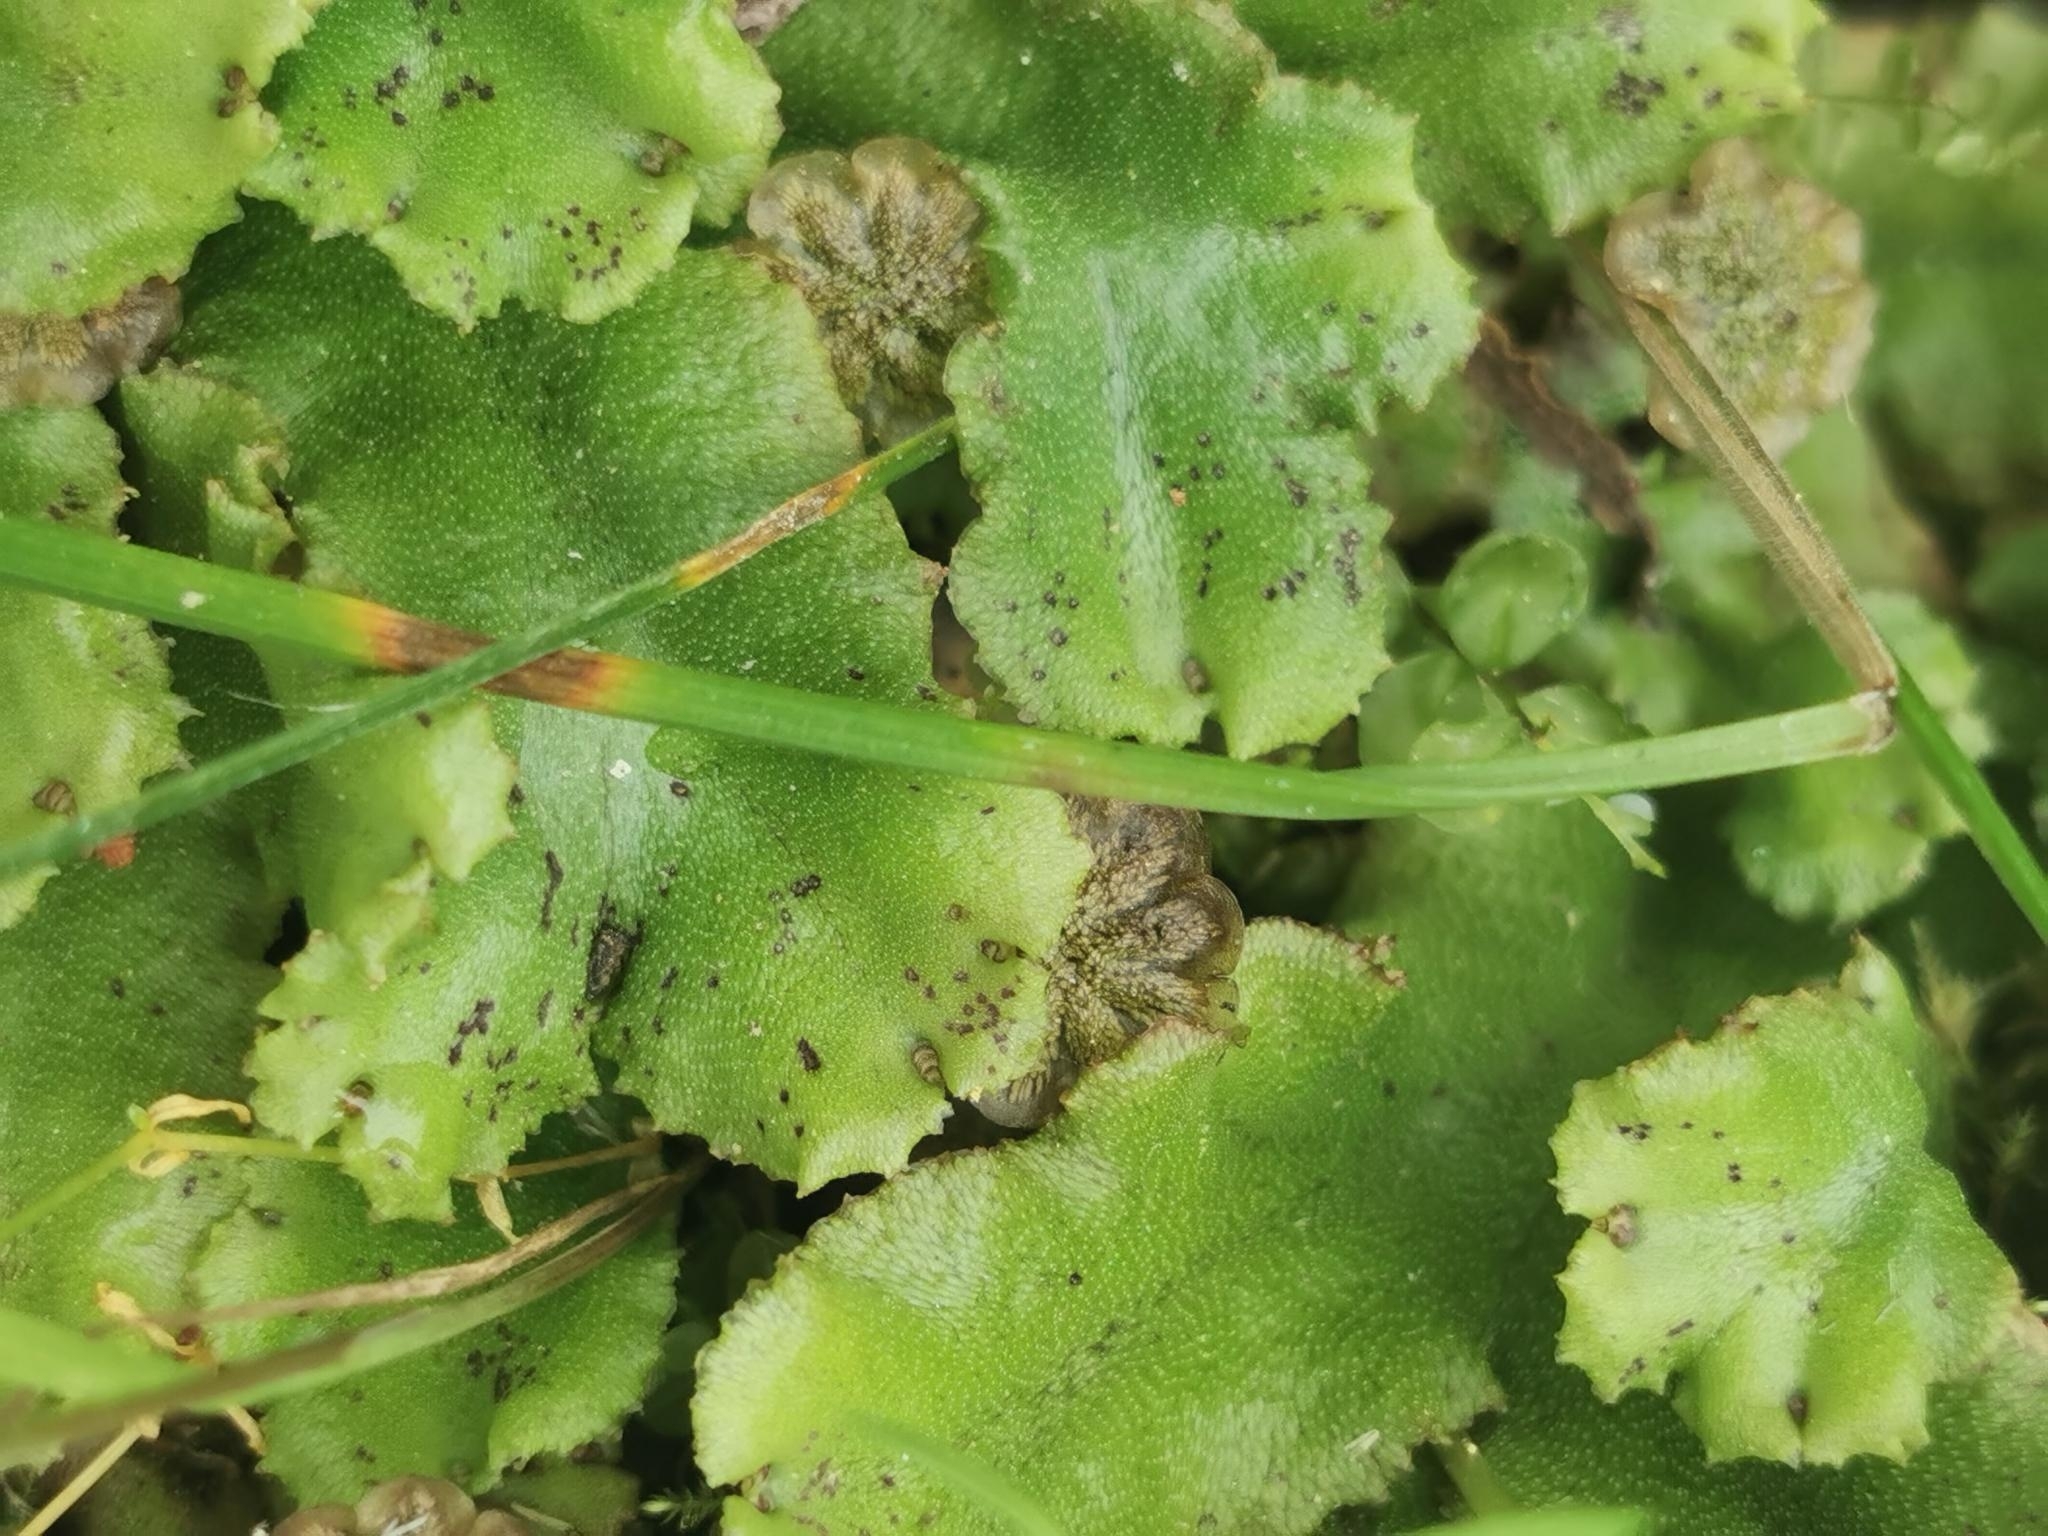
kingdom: Plantae
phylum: Marchantiophyta
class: Marchantiopsida
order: Marchantiales
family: Marchantiaceae
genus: Marchantia
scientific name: Marchantia polymorpha
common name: Common liverwort
